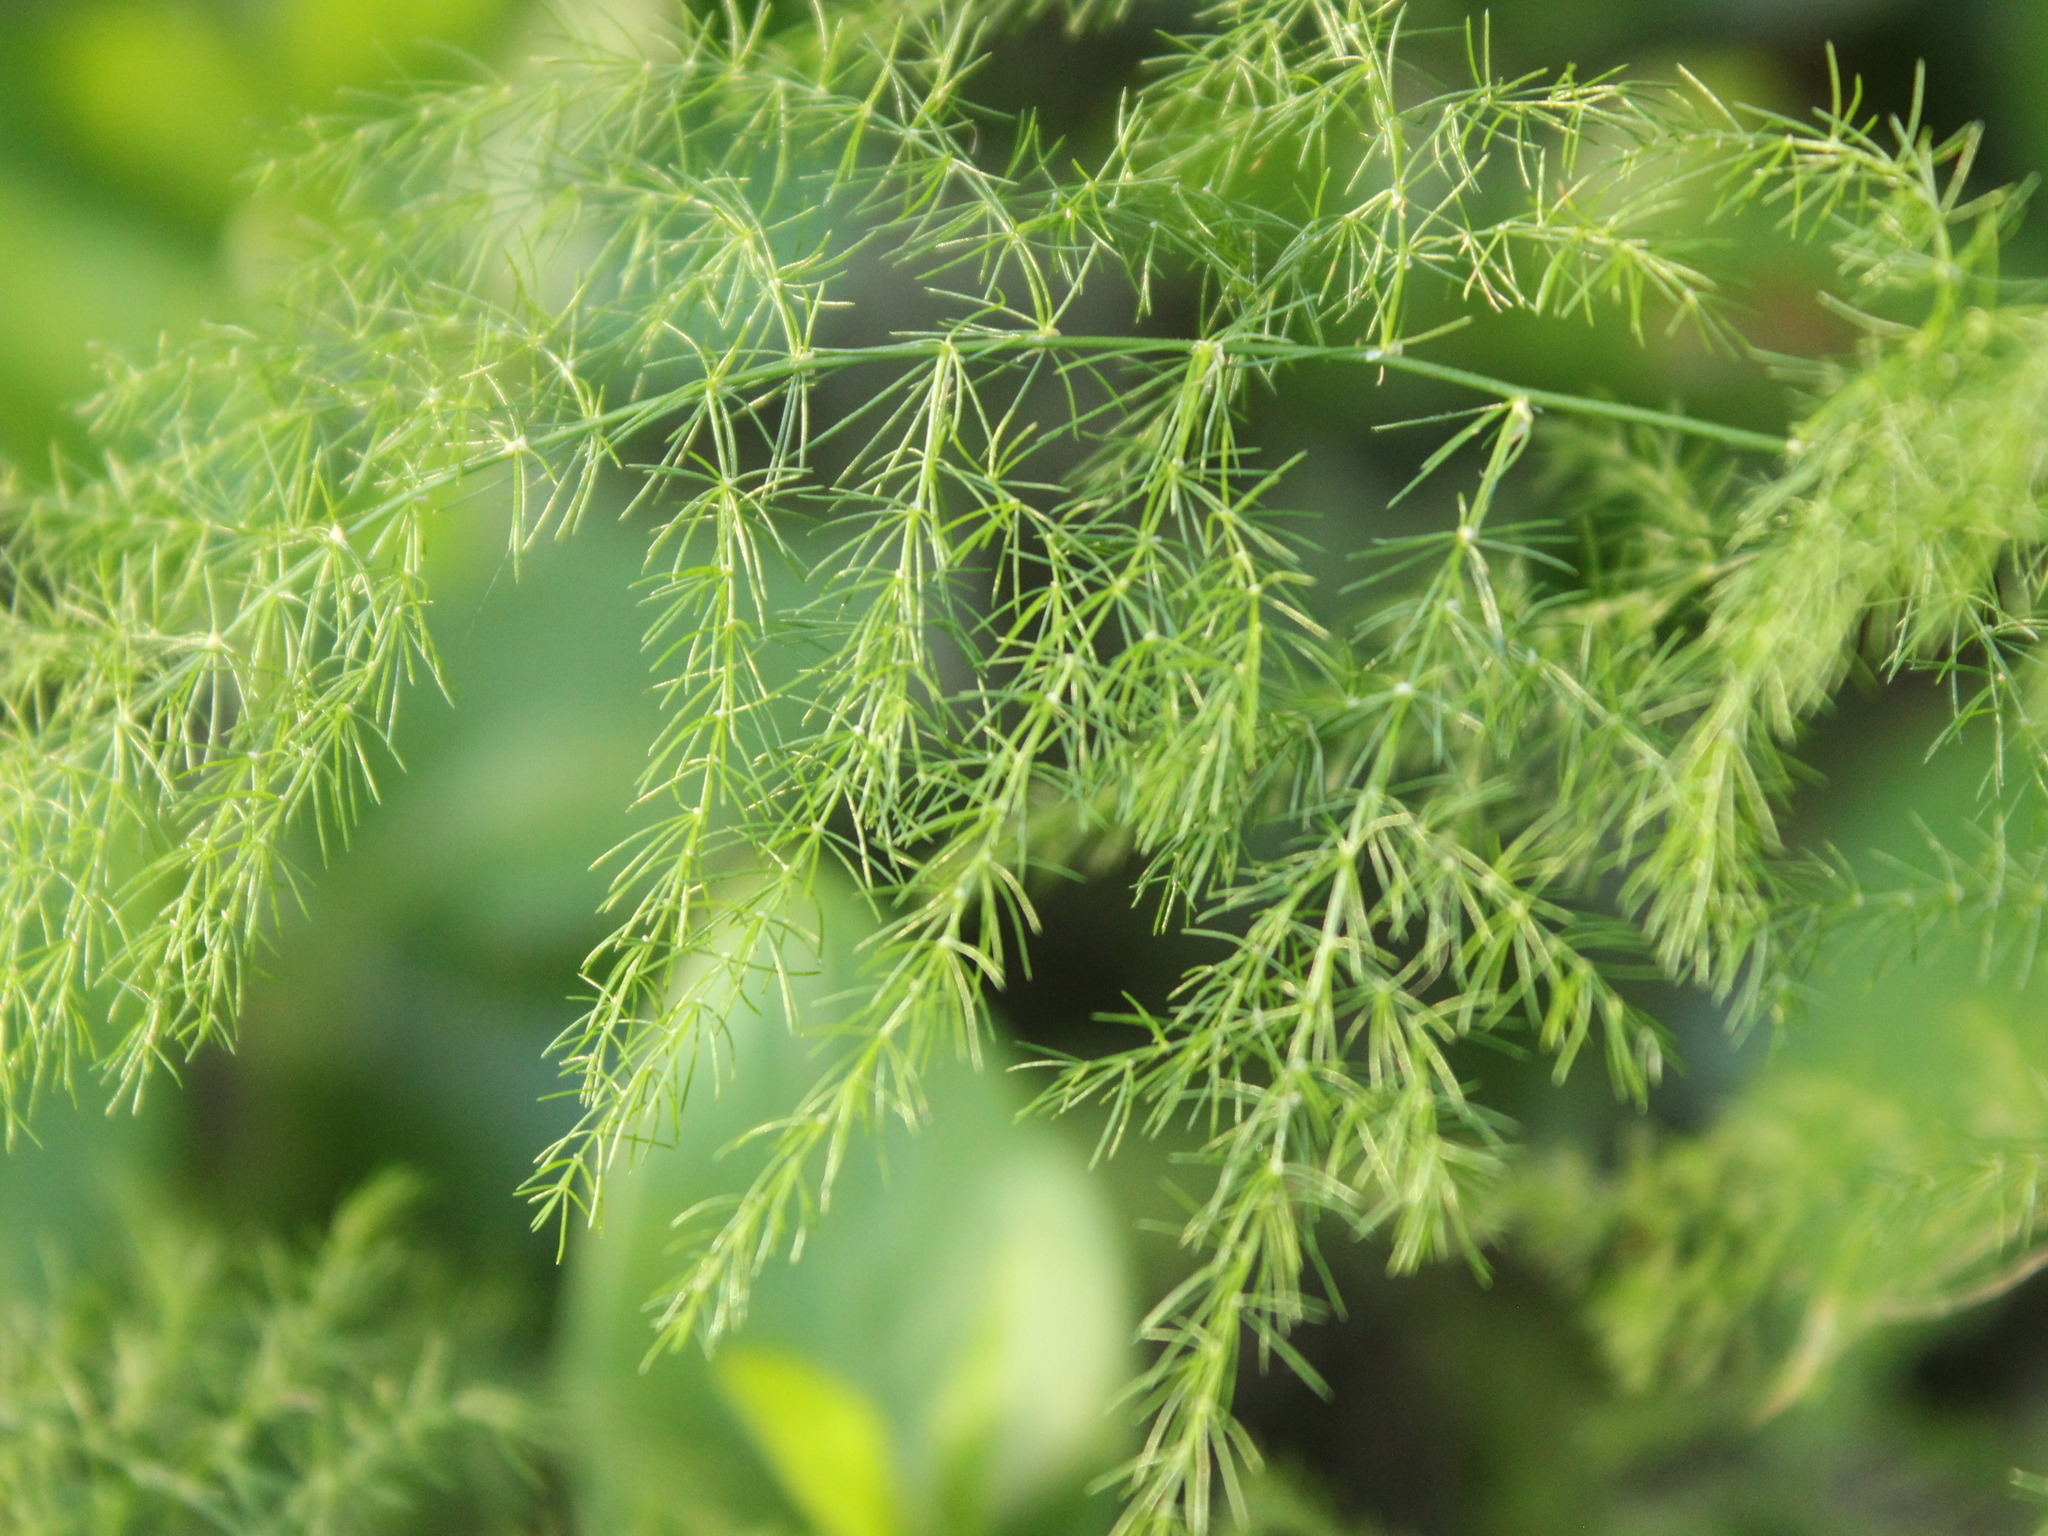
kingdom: Plantae
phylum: Tracheophyta
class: Liliopsida
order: Asparagales
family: Asparagaceae
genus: Asparagus
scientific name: Asparagus setaceus
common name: Common asparagus fern
